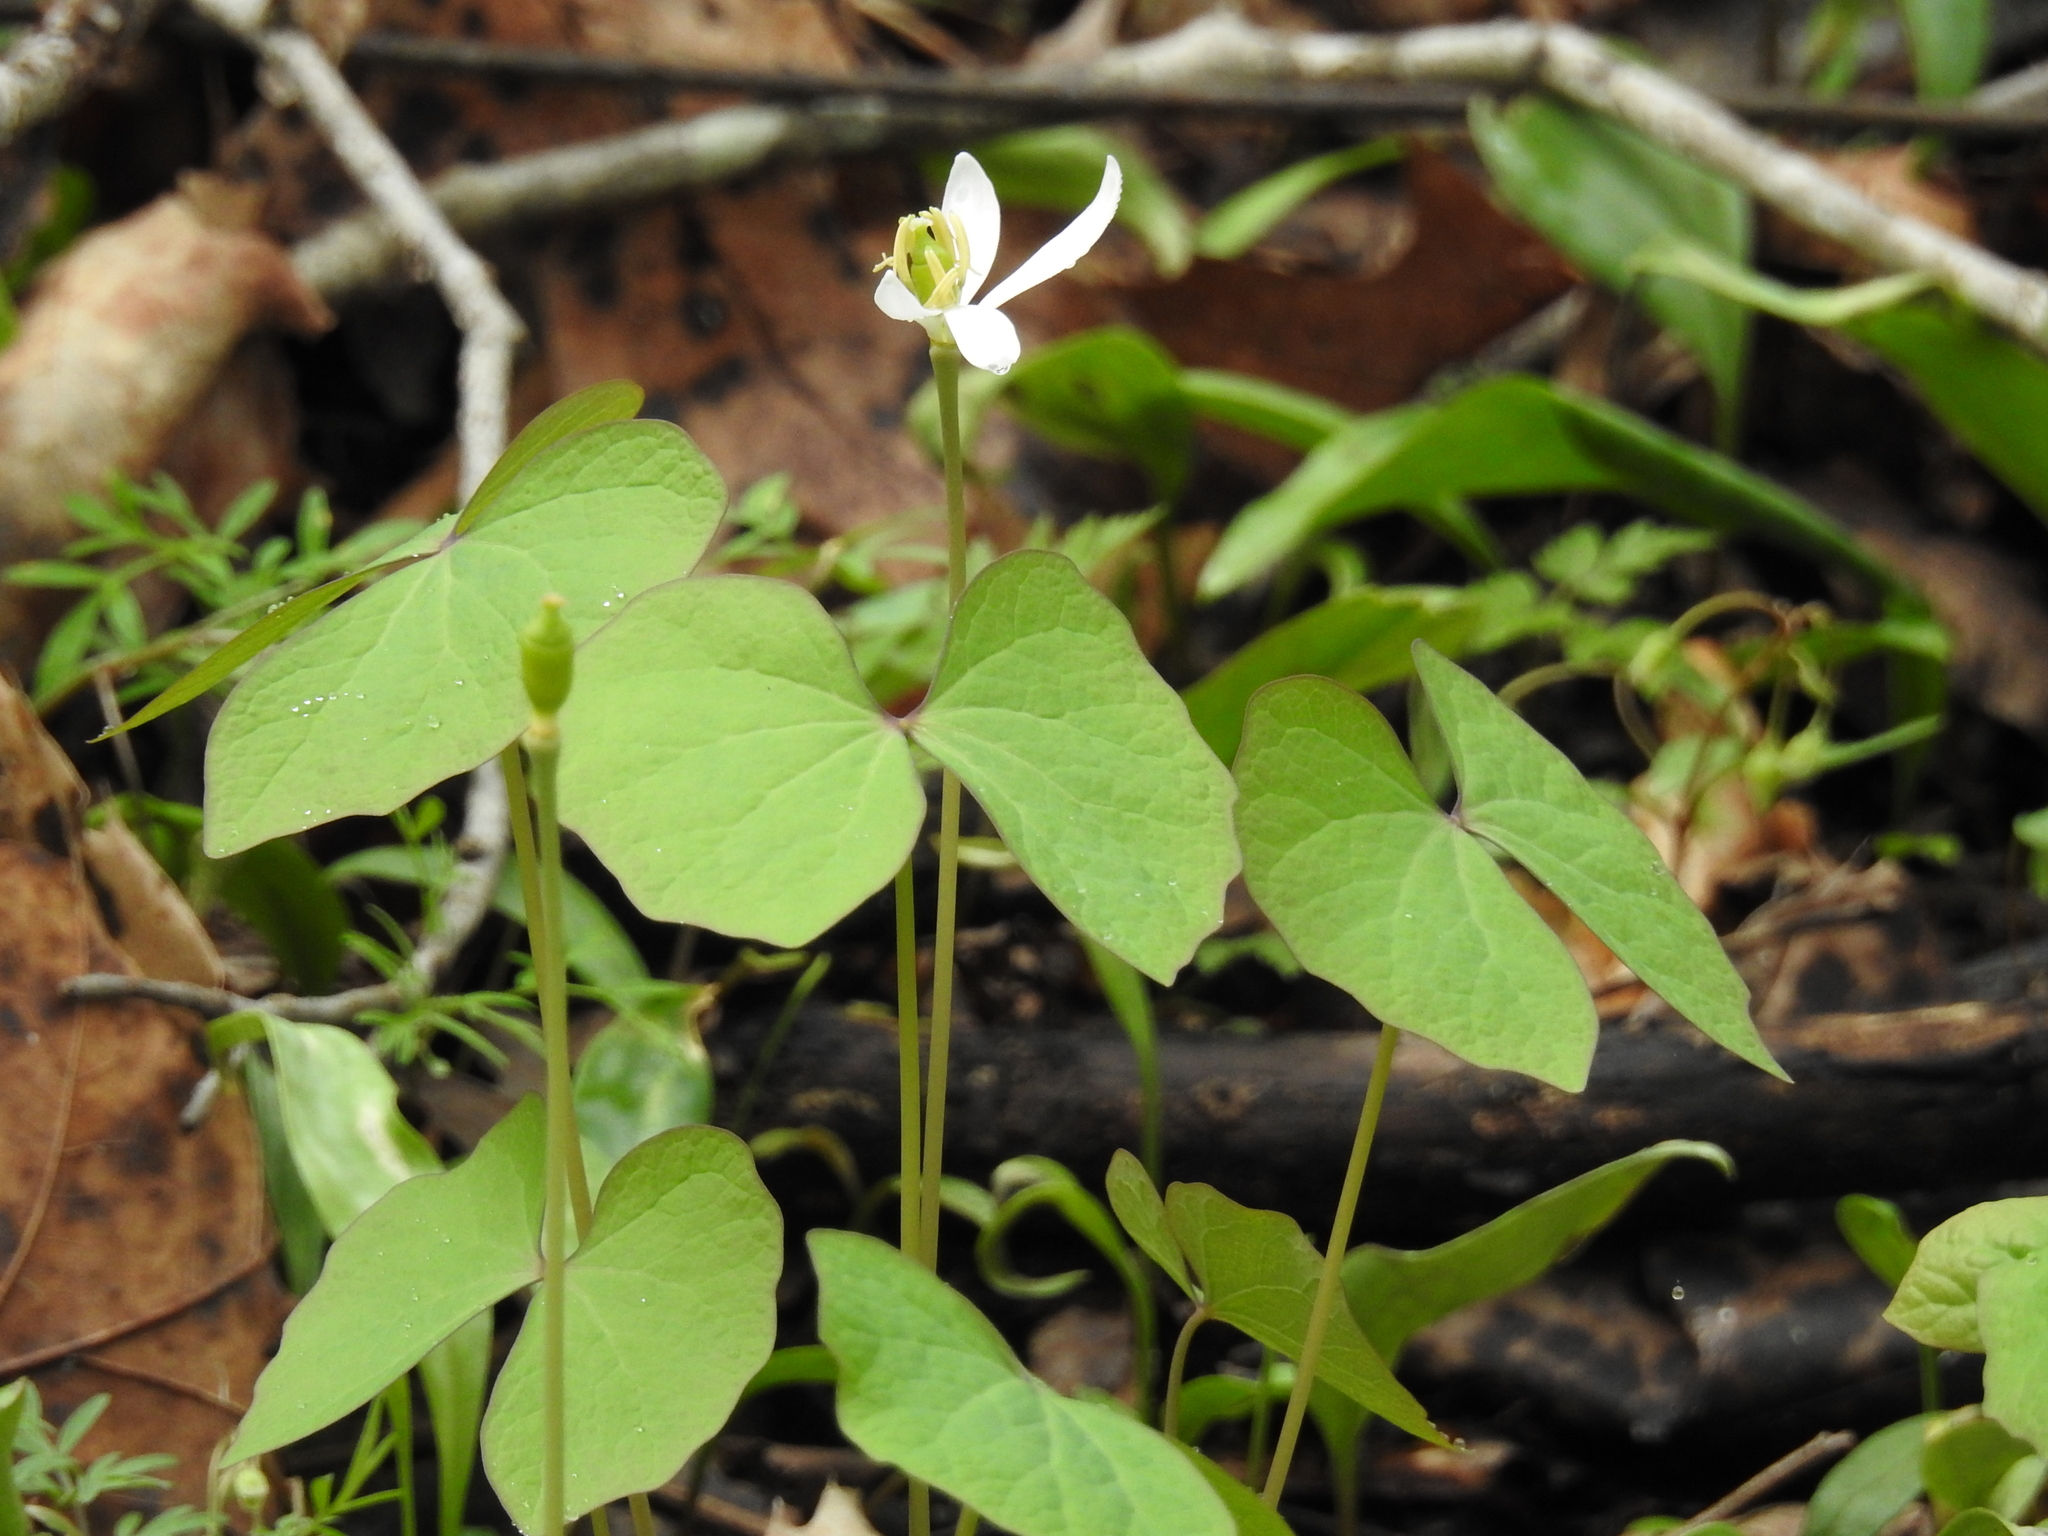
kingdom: Plantae
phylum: Tracheophyta
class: Magnoliopsida
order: Ranunculales
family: Berberidaceae
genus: Jeffersonia
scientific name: Jeffersonia diphylla
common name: Rheumatism-root
